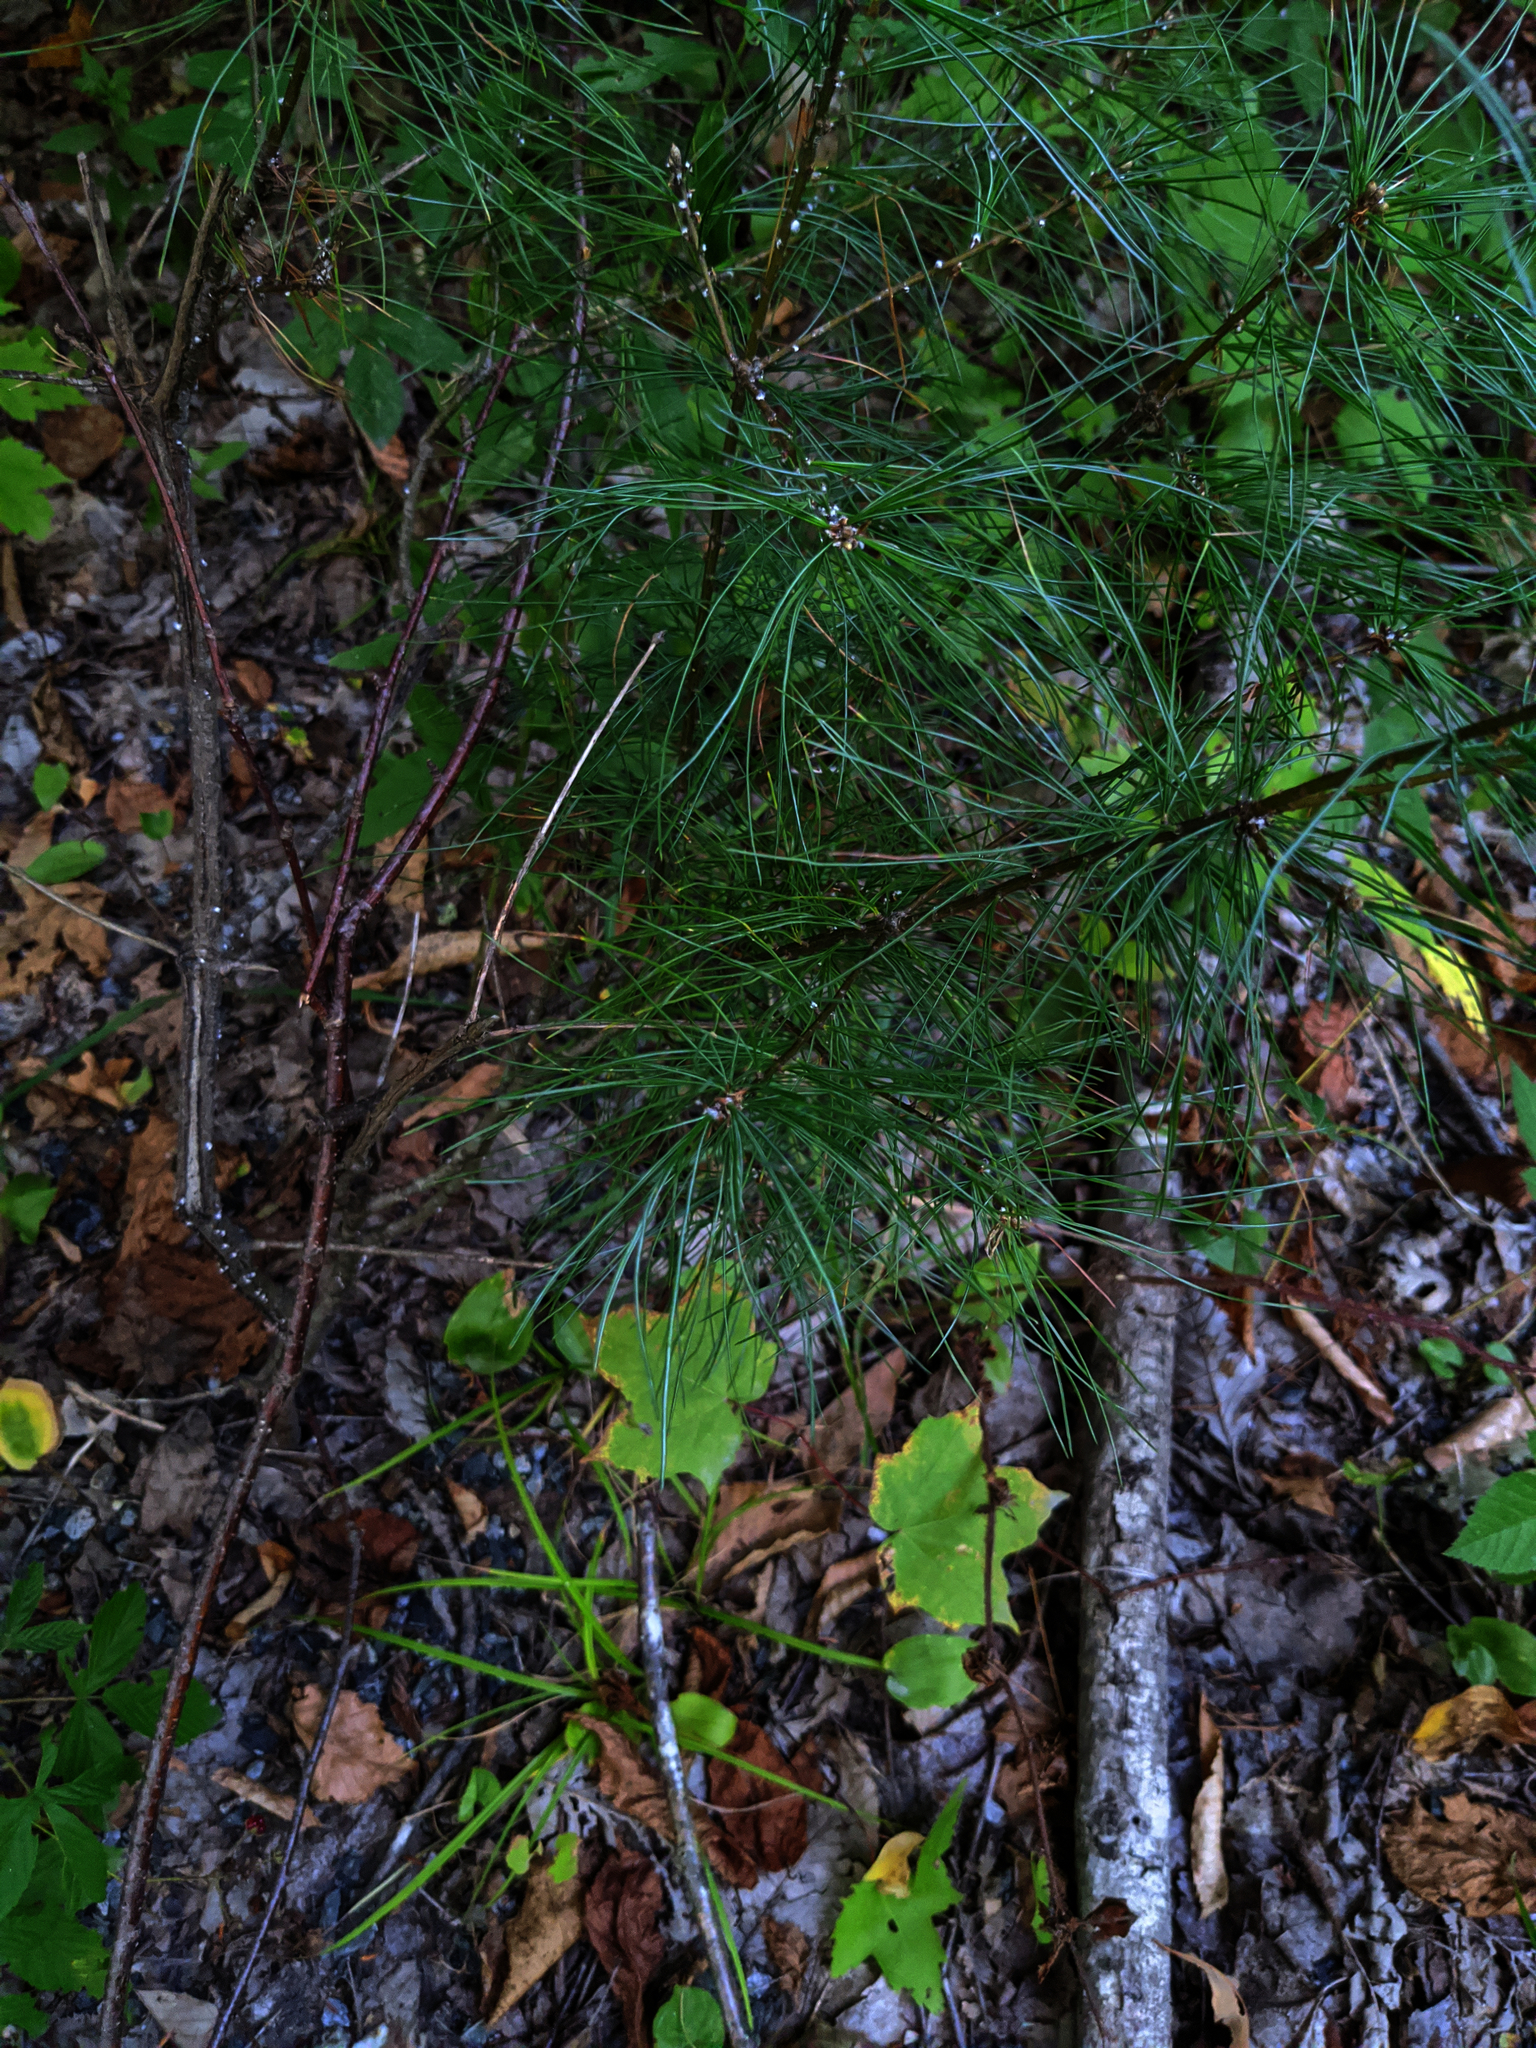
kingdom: Plantae
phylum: Tracheophyta
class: Pinopsida
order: Pinales
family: Pinaceae
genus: Pinus
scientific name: Pinus strobus
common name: Weymouth pine
